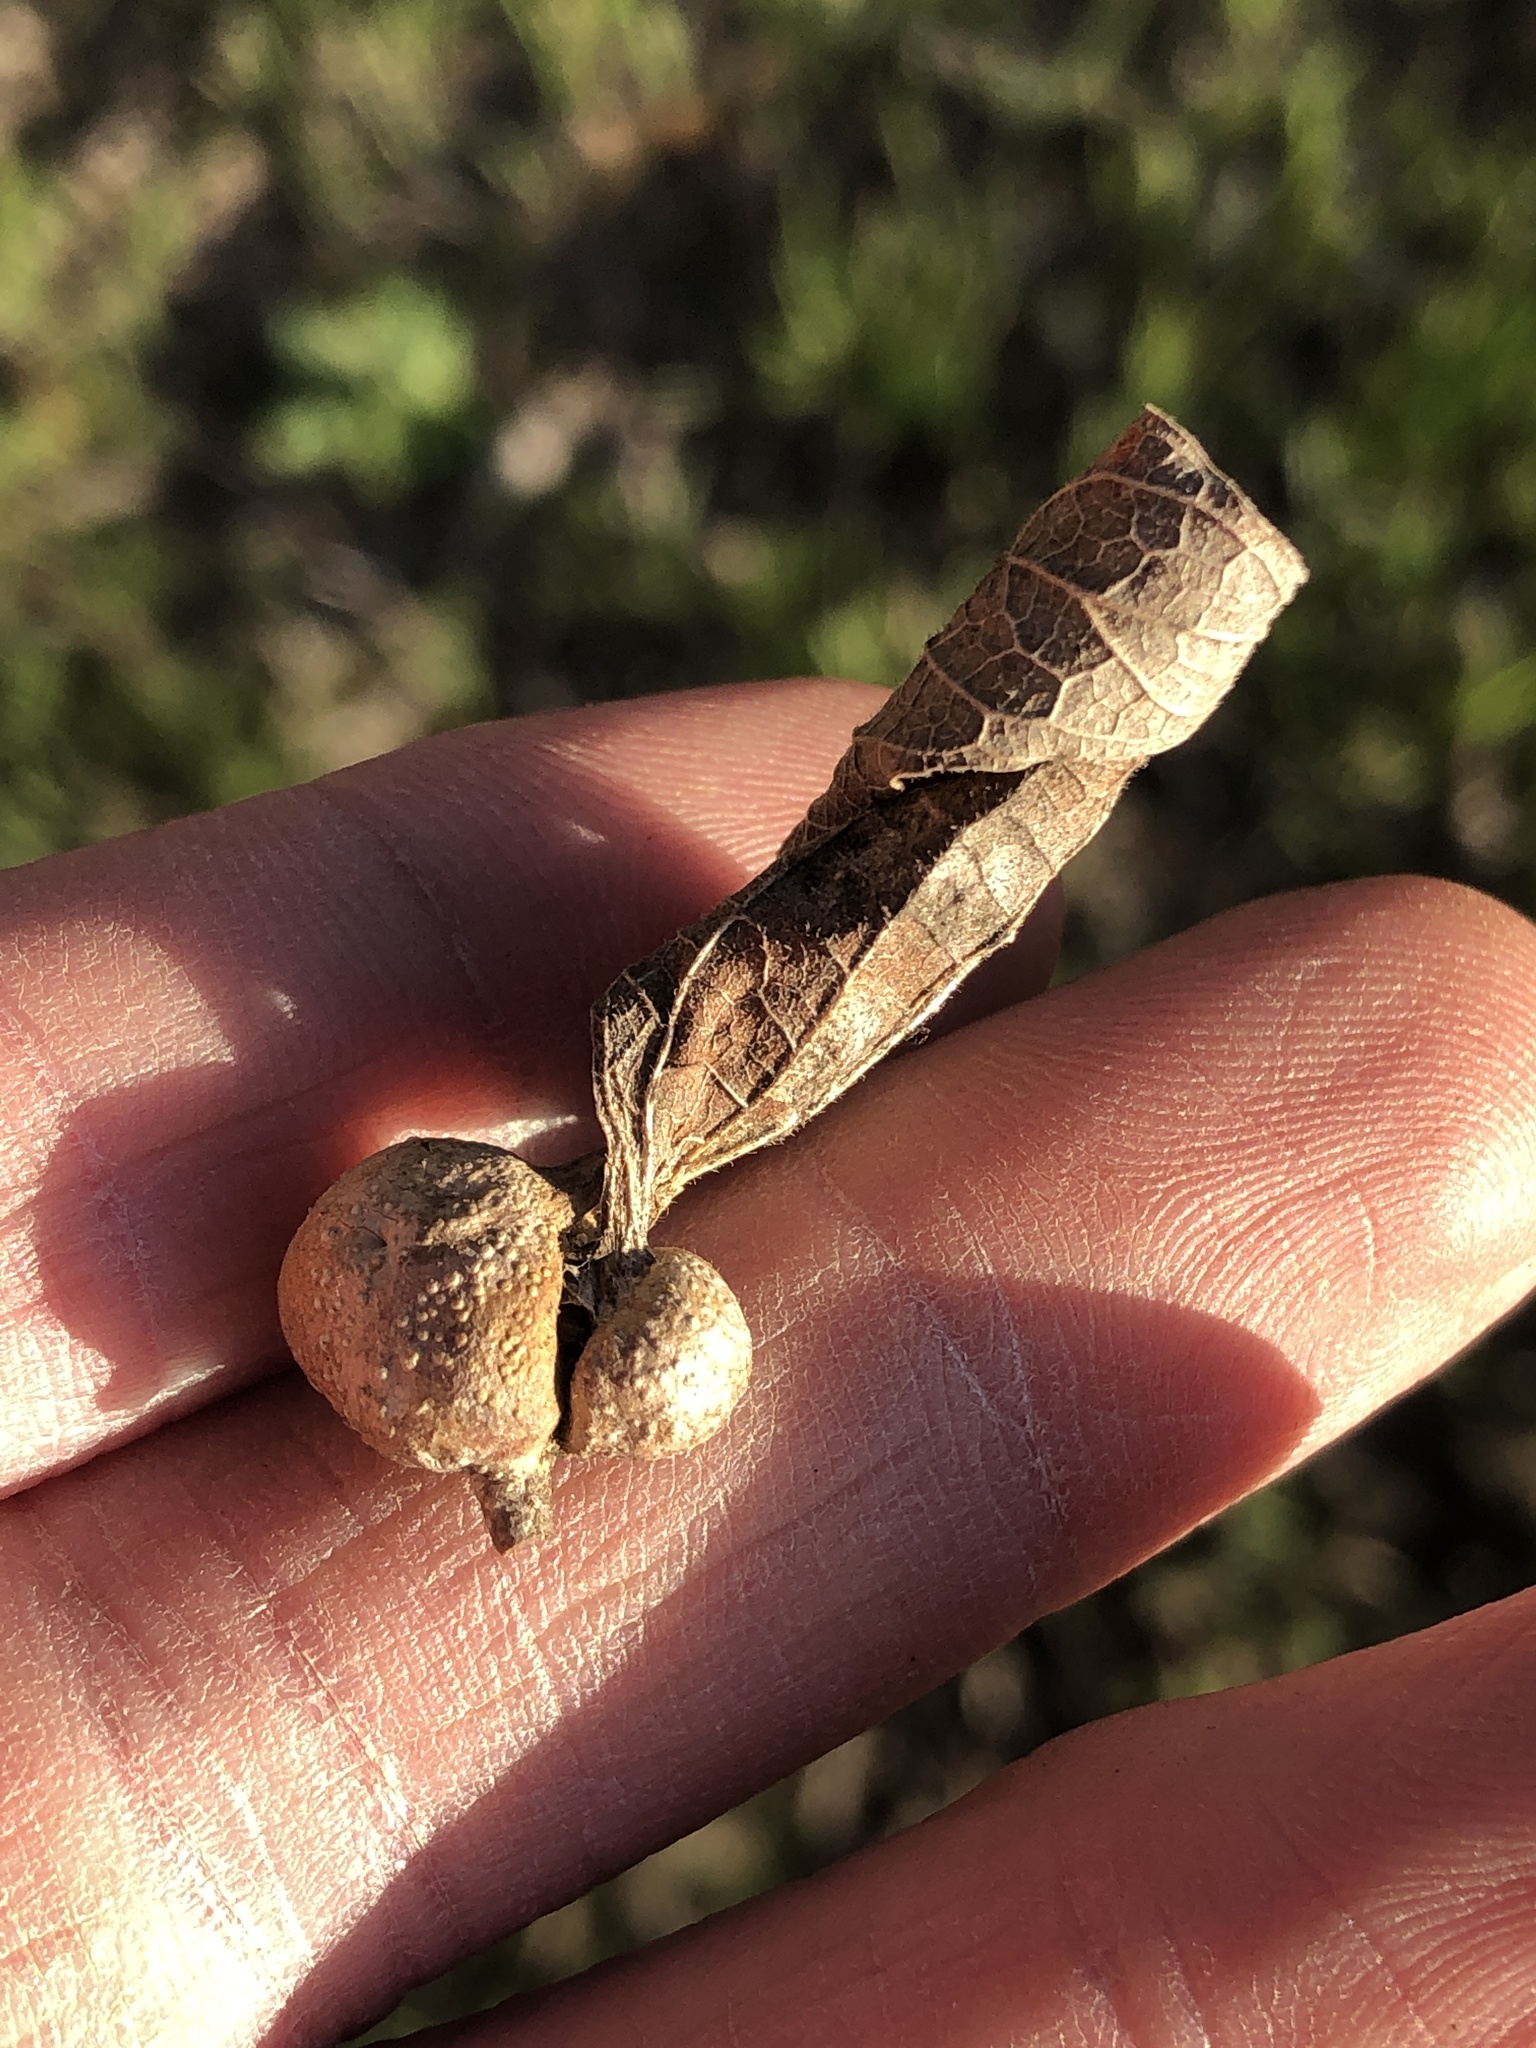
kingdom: Animalia
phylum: Arthropoda
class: Insecta
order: Hemiptera
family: Aphalaridae
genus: Pachypsylla
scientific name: Pachypsylla venusta
